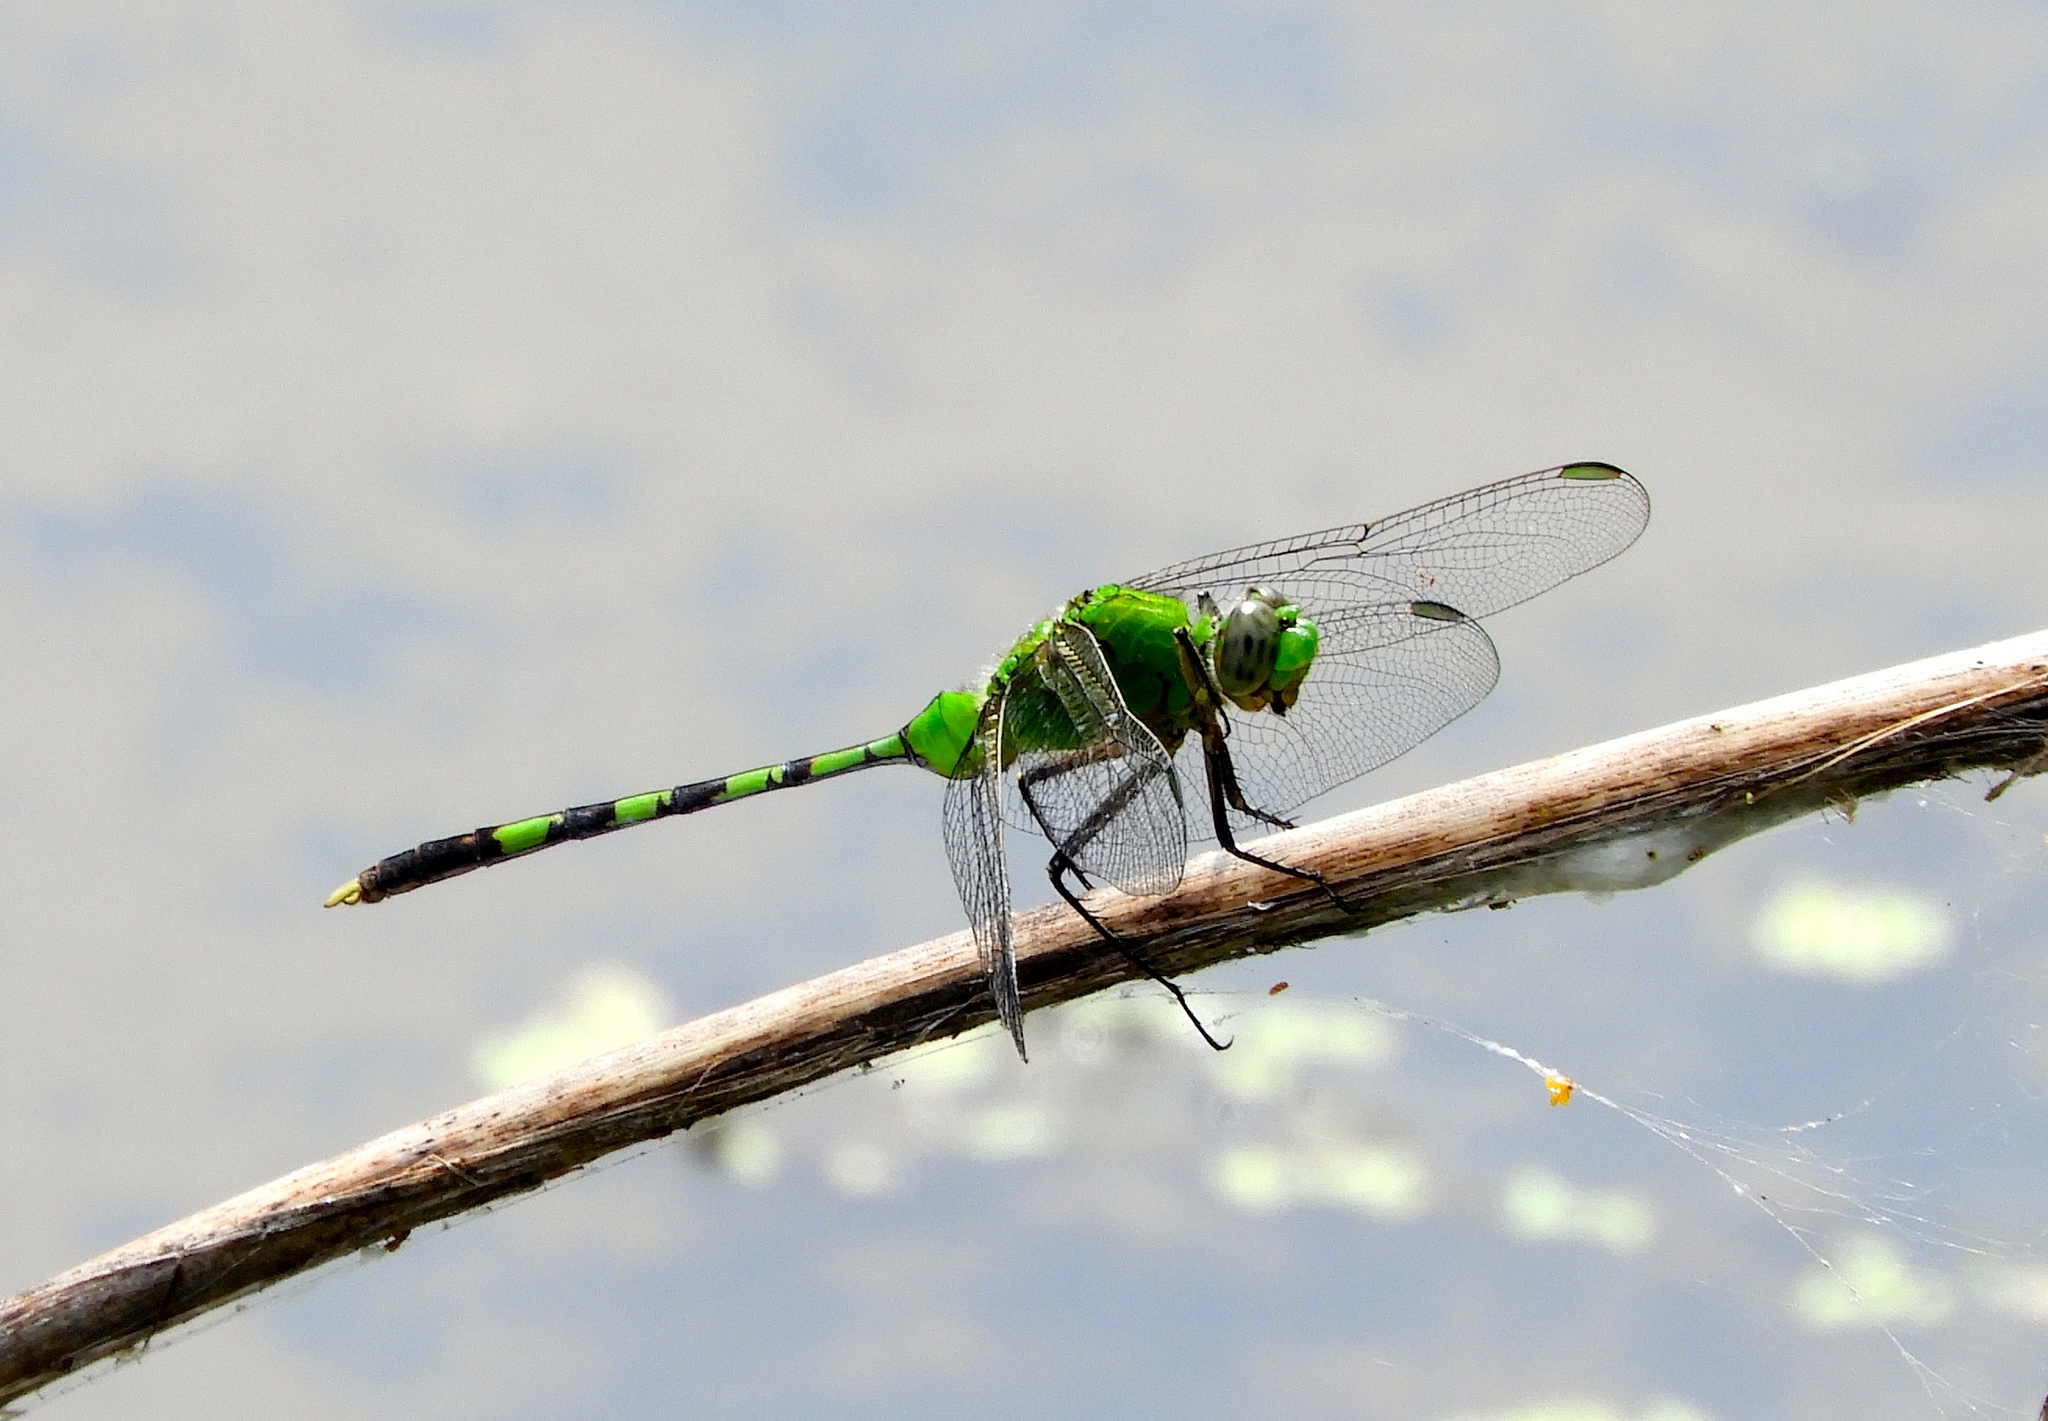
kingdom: Animalia
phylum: Arthropoda
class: Insecta
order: Odonata
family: Libellulidae
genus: Erythemis
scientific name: Erythemis vesiculosa
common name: Great pondhawk
